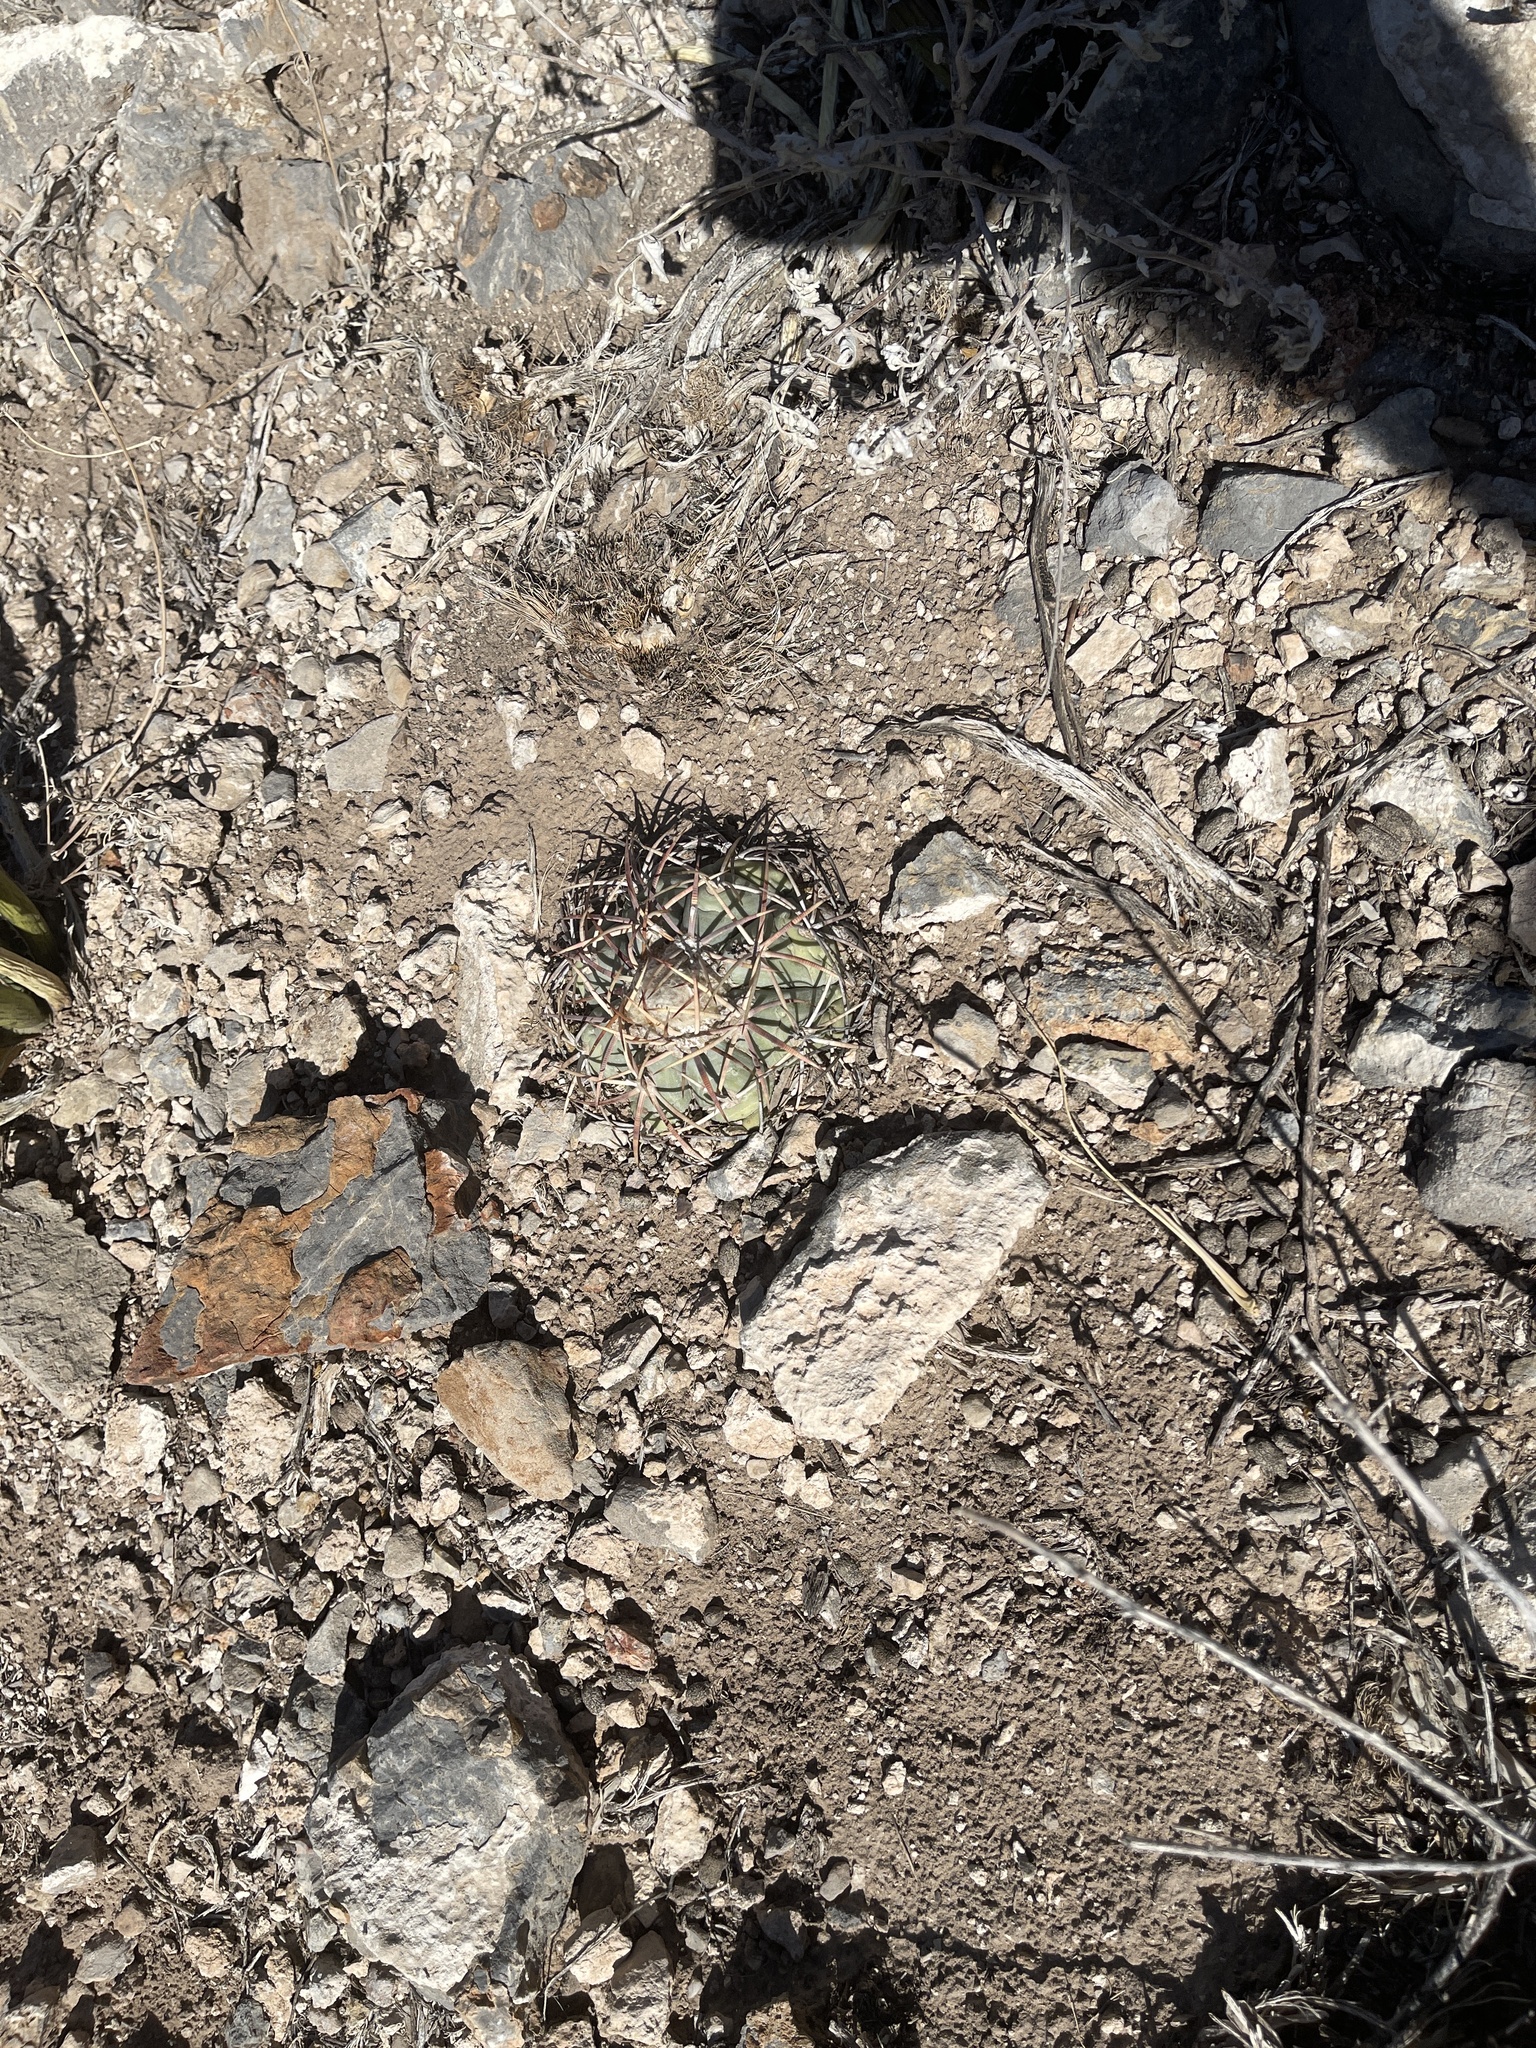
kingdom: Plantae
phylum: Tracheophyta
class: Magnoliopsida
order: Caryophyllales
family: Cactaceae
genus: Echinocactus
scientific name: Echinocactus horizonthalonius
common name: Devilshead
